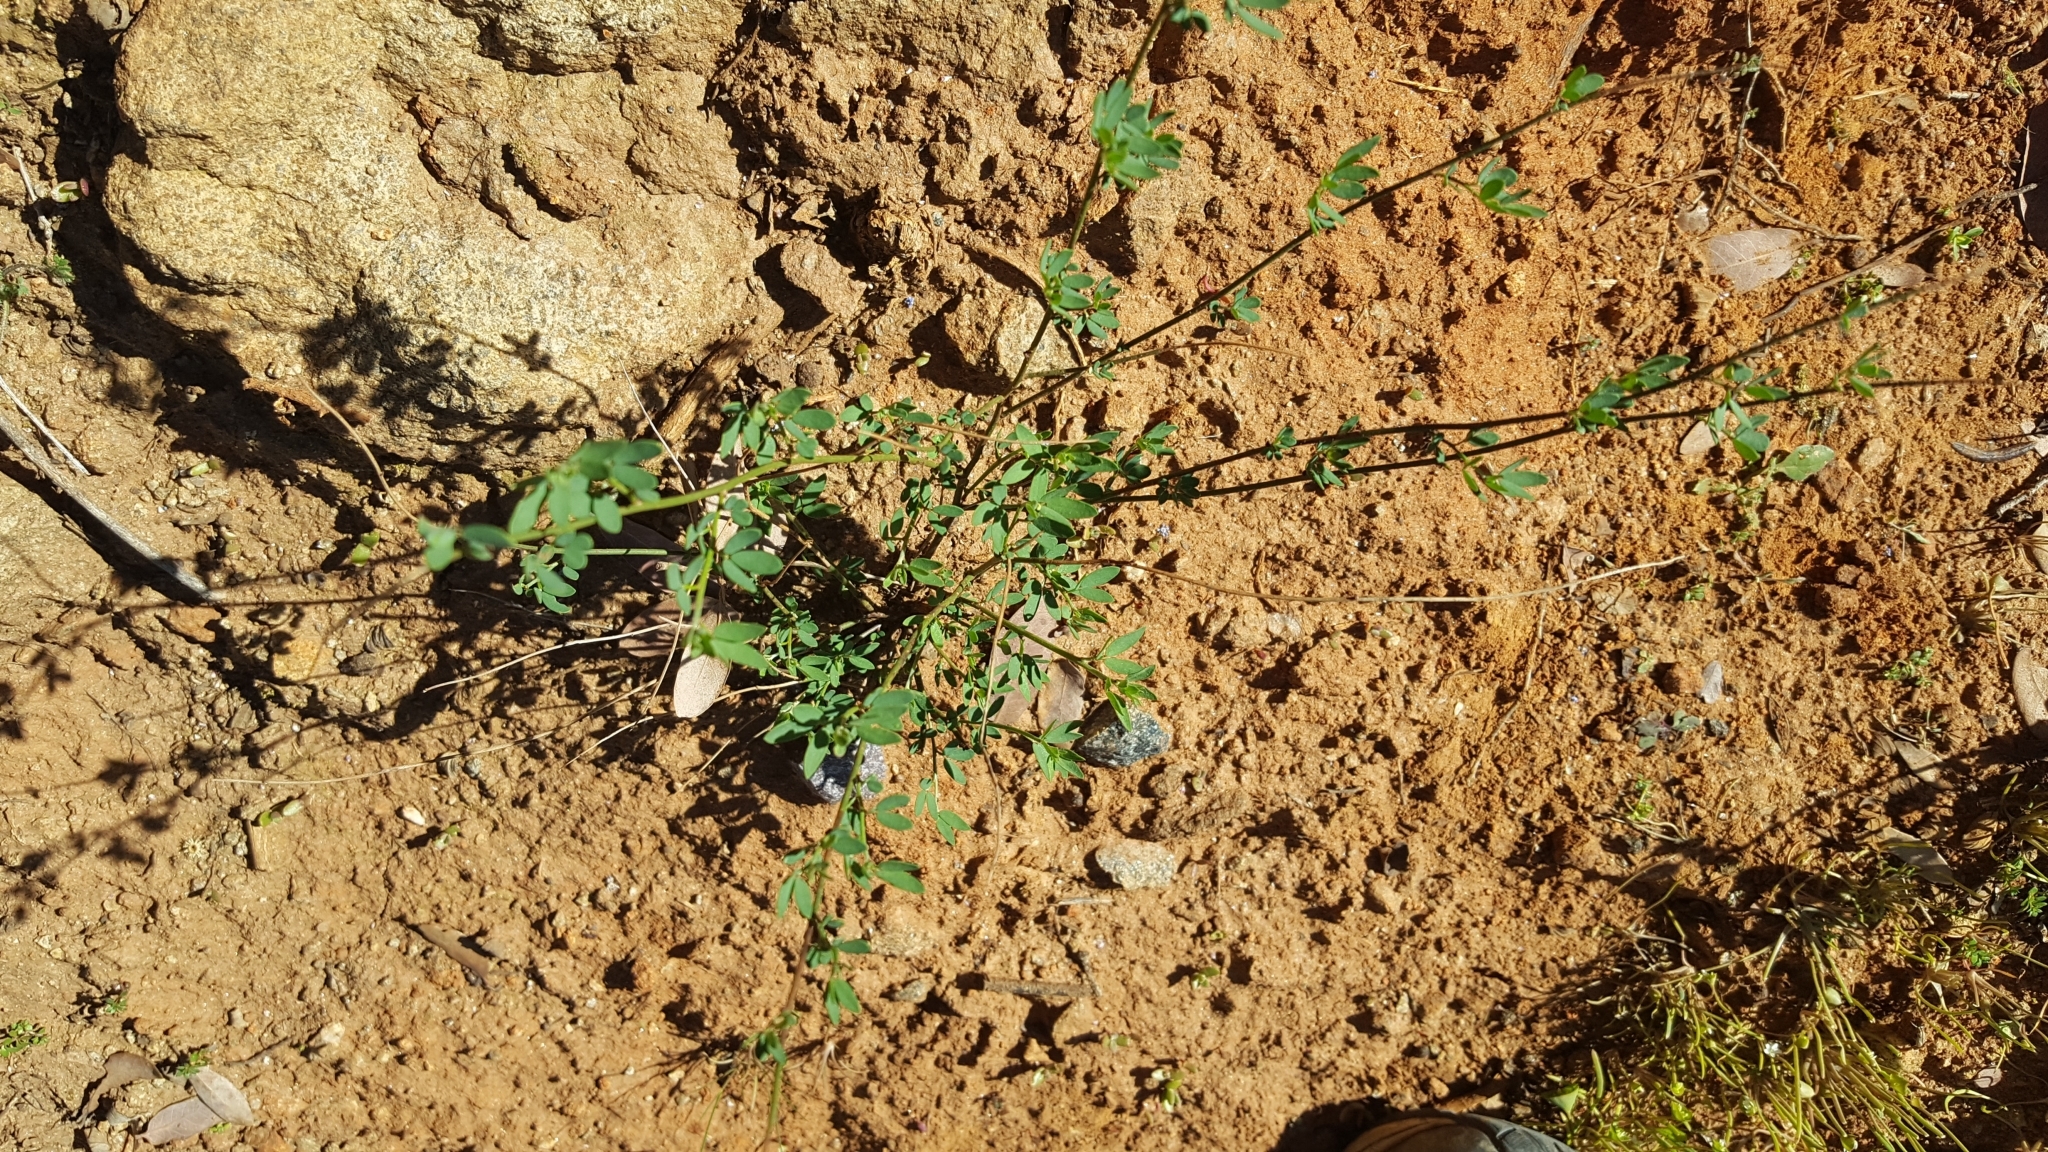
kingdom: Plantae
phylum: Tracheophyta
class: Magnoliopsida
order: Fabales
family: Fabaceae
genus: Acmispon
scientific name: Acmispon glaber
